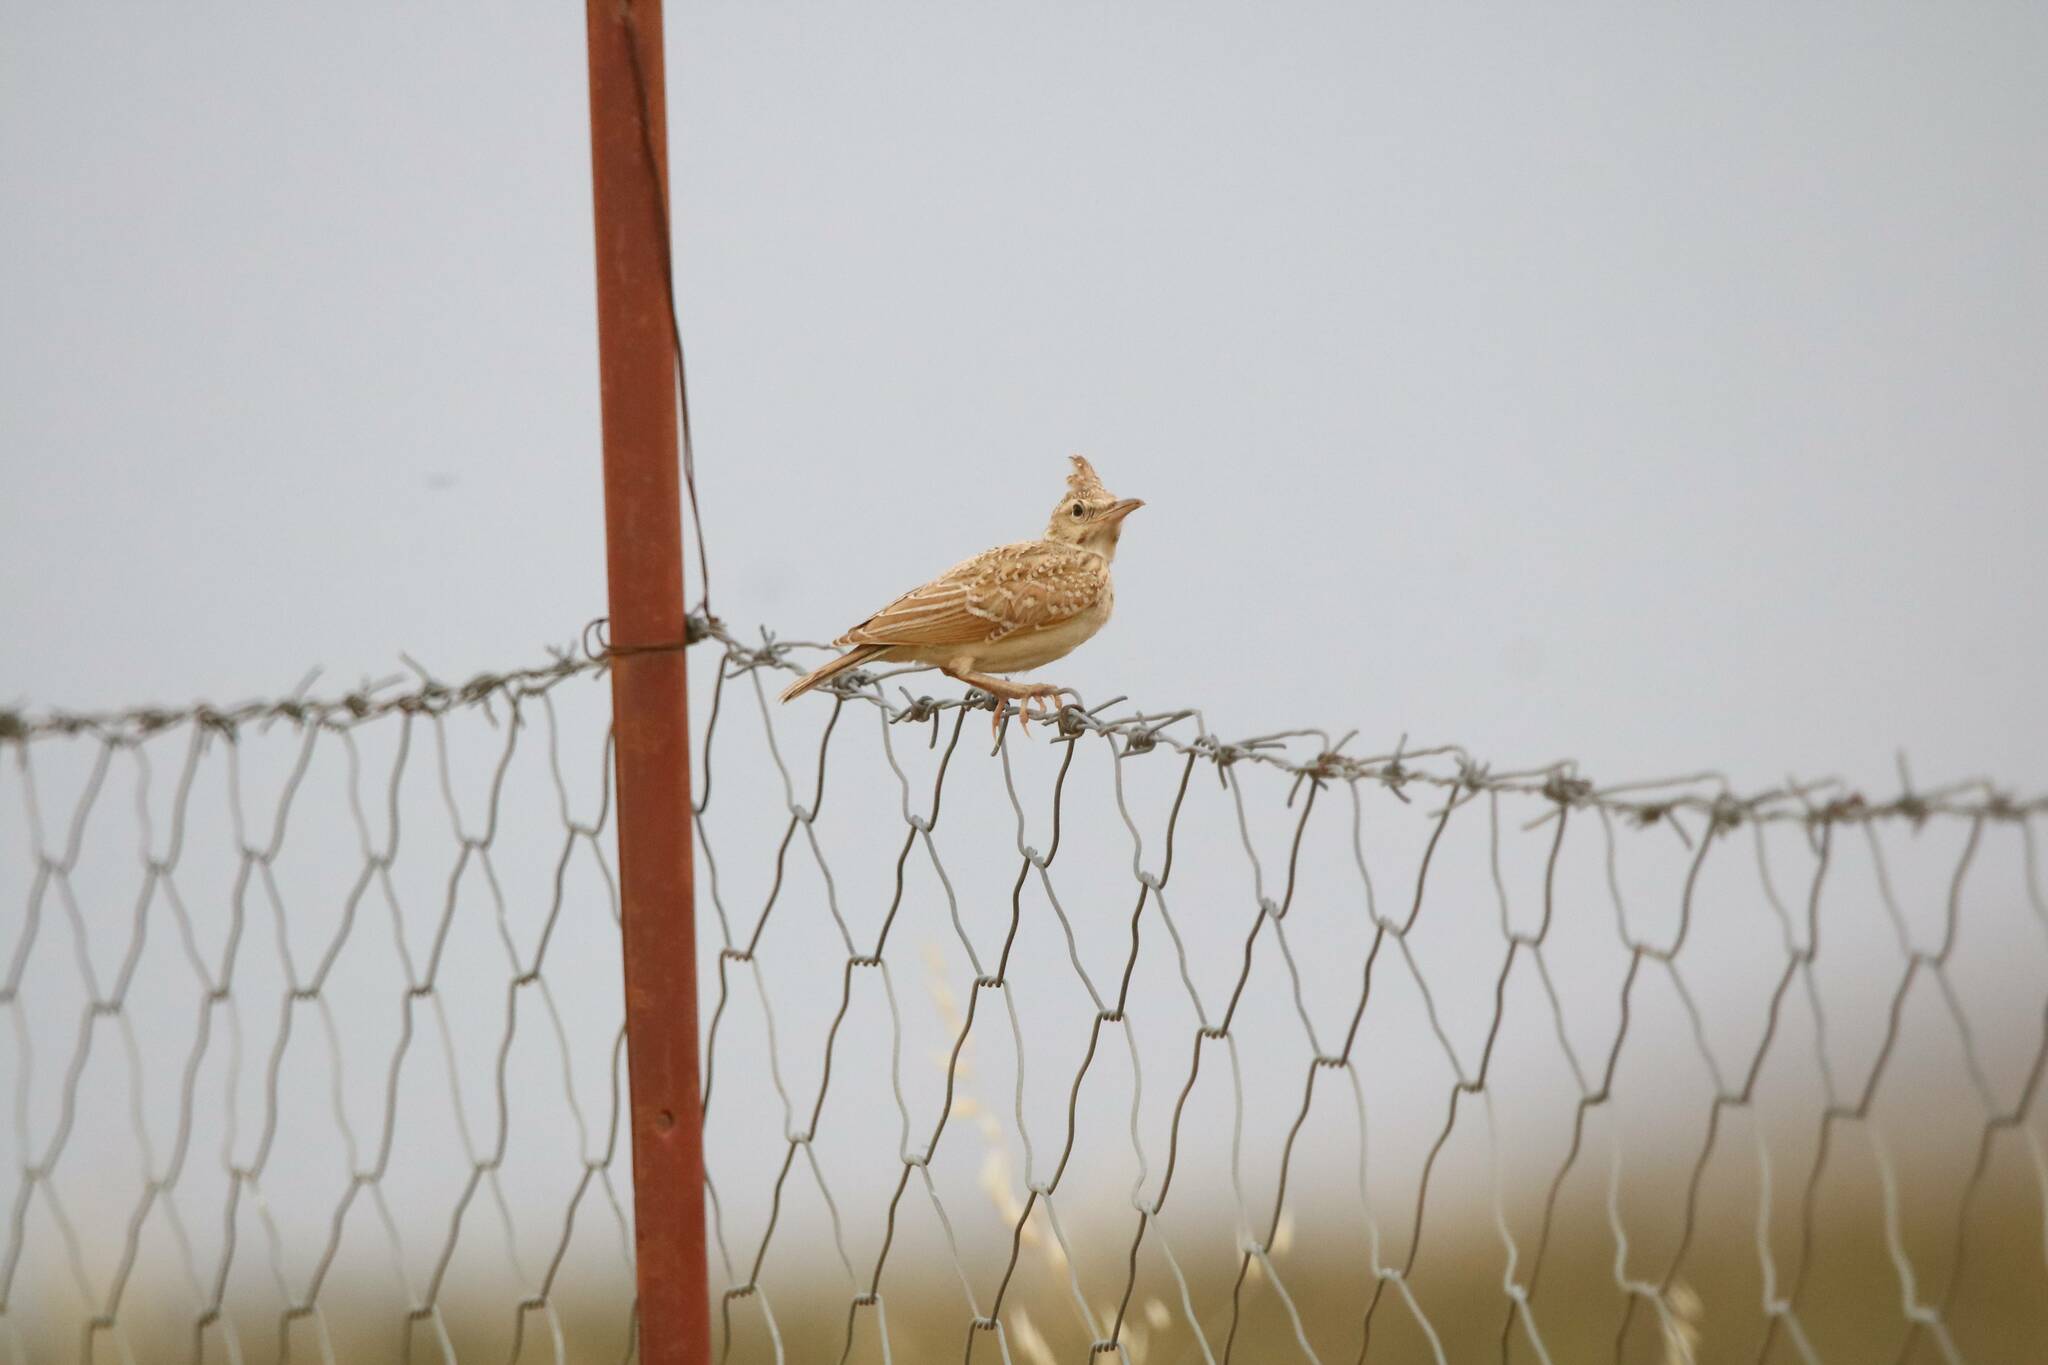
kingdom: Animalia
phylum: Chordata
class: Aves
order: Passeriformes
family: Alaudidae
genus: Galerida
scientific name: Galerida cristata
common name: Crested lark
